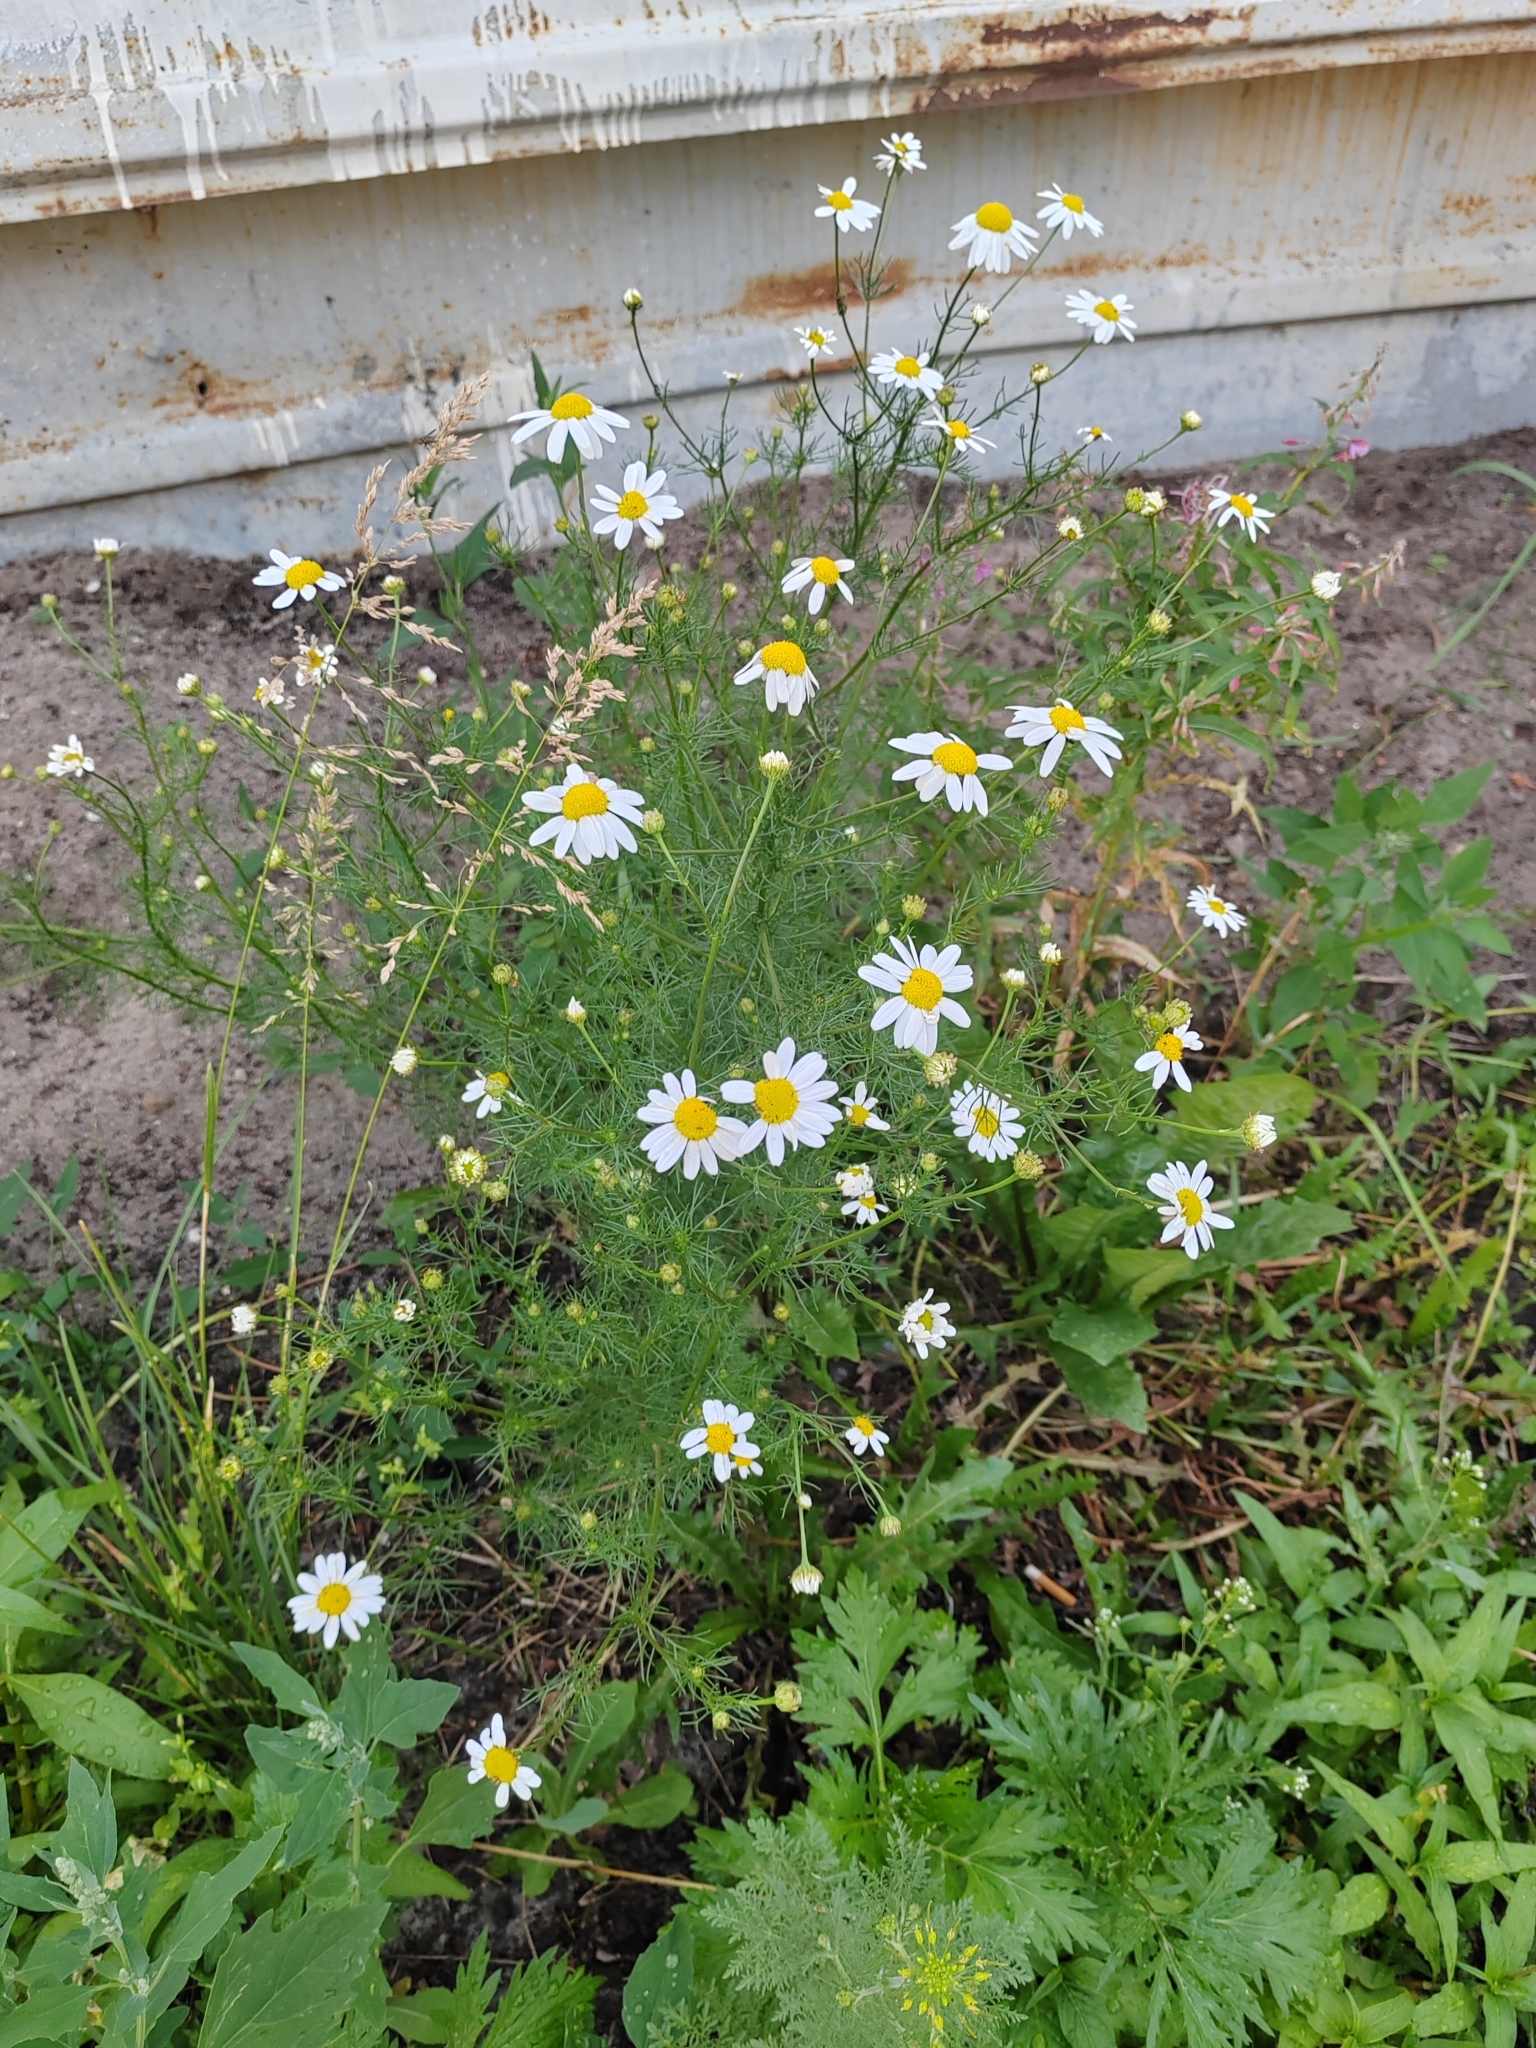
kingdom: Plantae
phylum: Tracheophyta
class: Magnoliopsida
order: Asterales
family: Asteraceae
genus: Tripleurospermum
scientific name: Tripleurospermum inodorum
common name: Scentless mayweed
